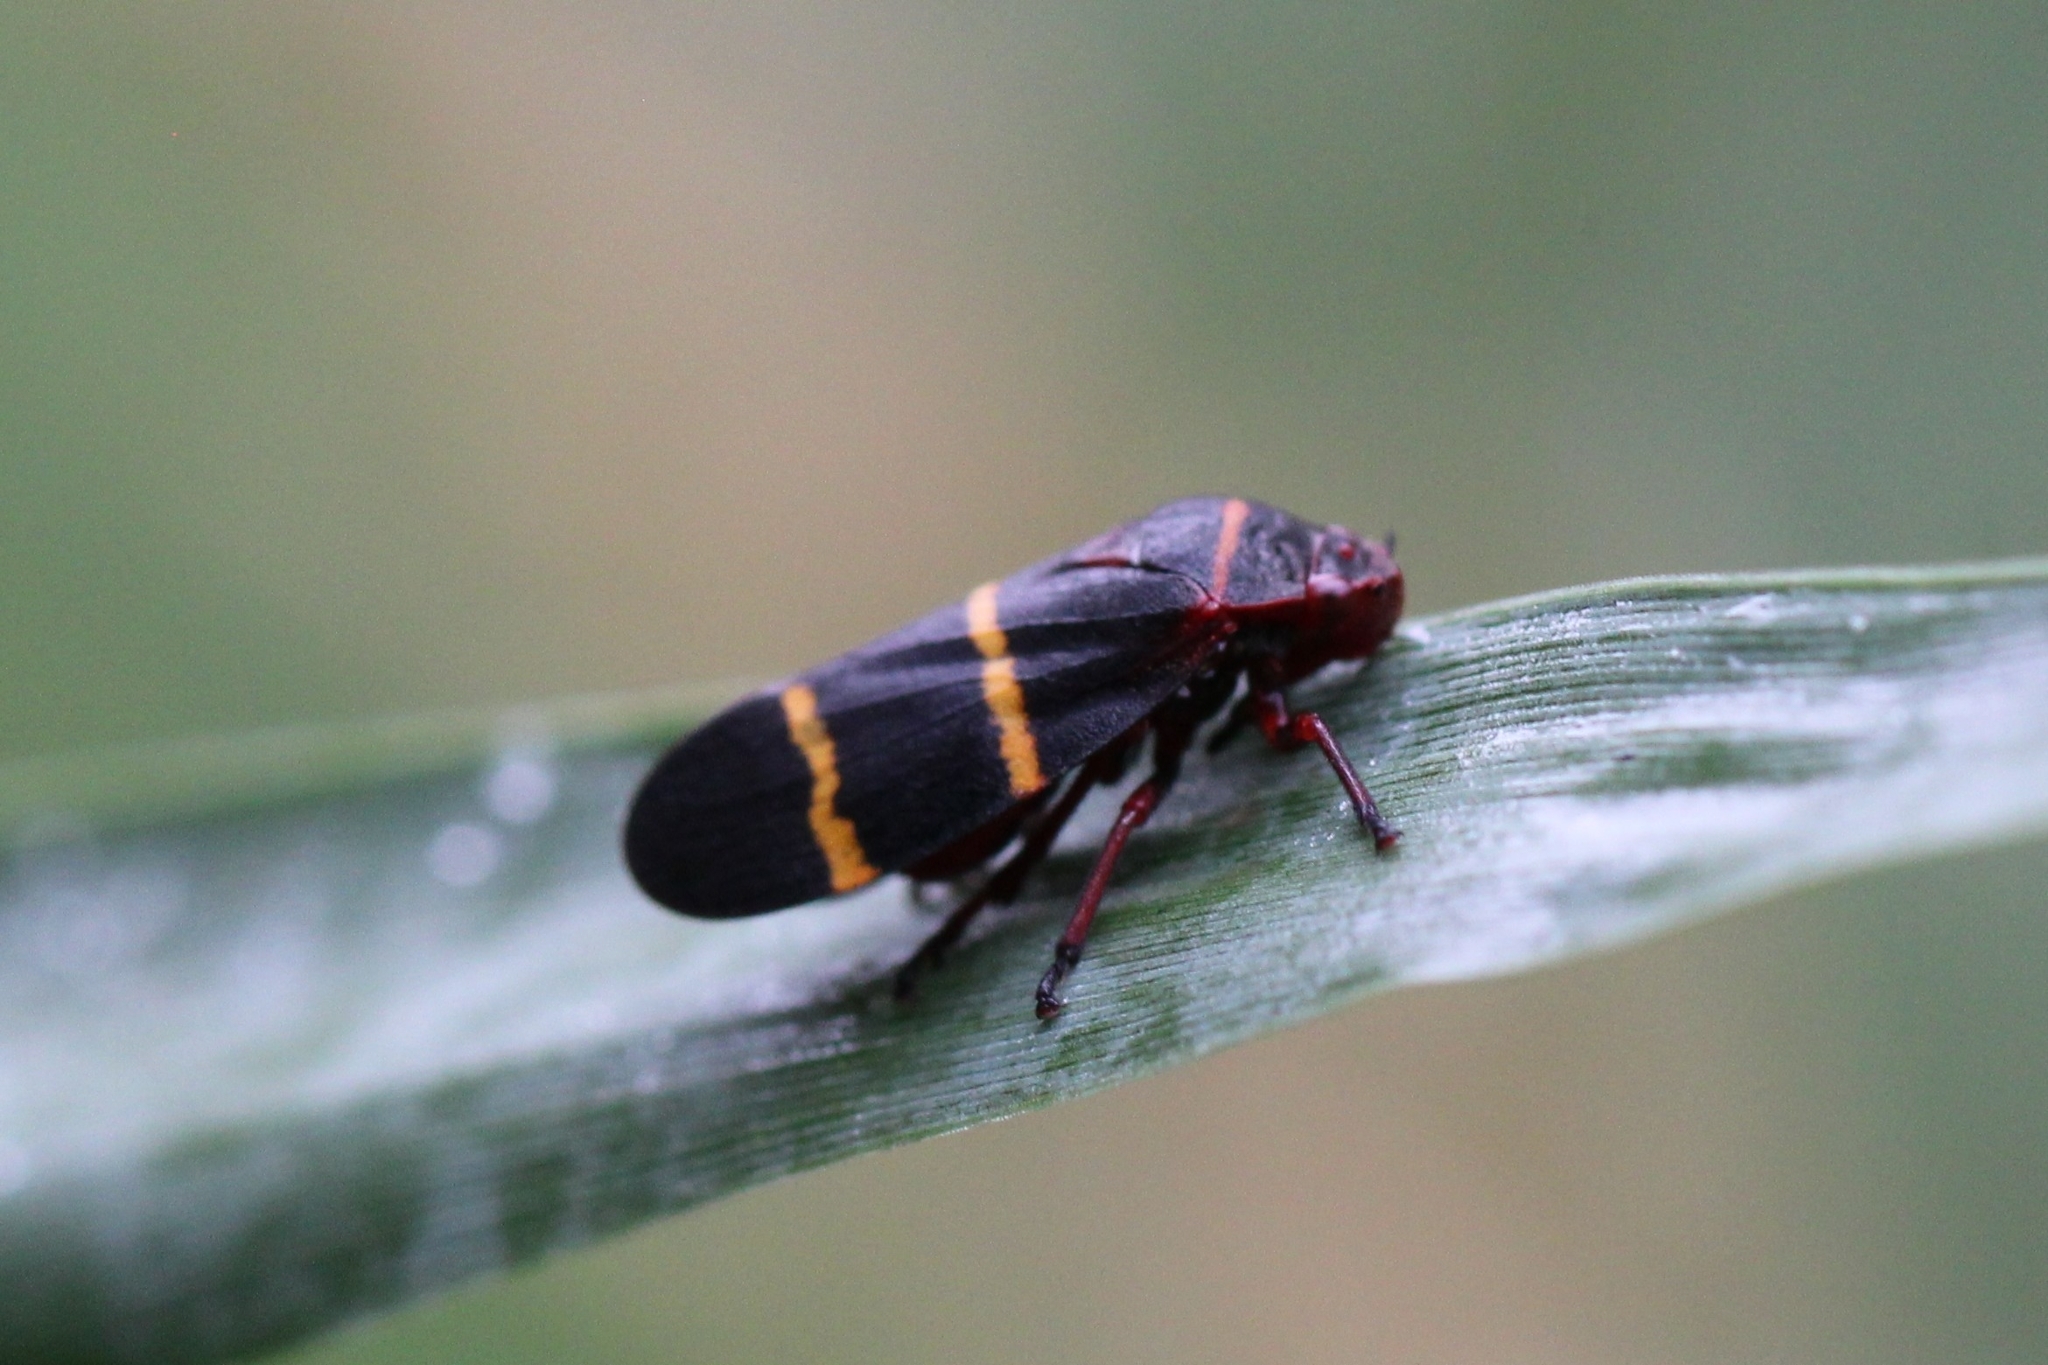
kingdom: Animalia
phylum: Arthropoda
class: Insecta
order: Hemiptera
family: Cercopidae
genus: Prosapia
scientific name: Prosapia bicincta
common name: Twolined spittlebug
